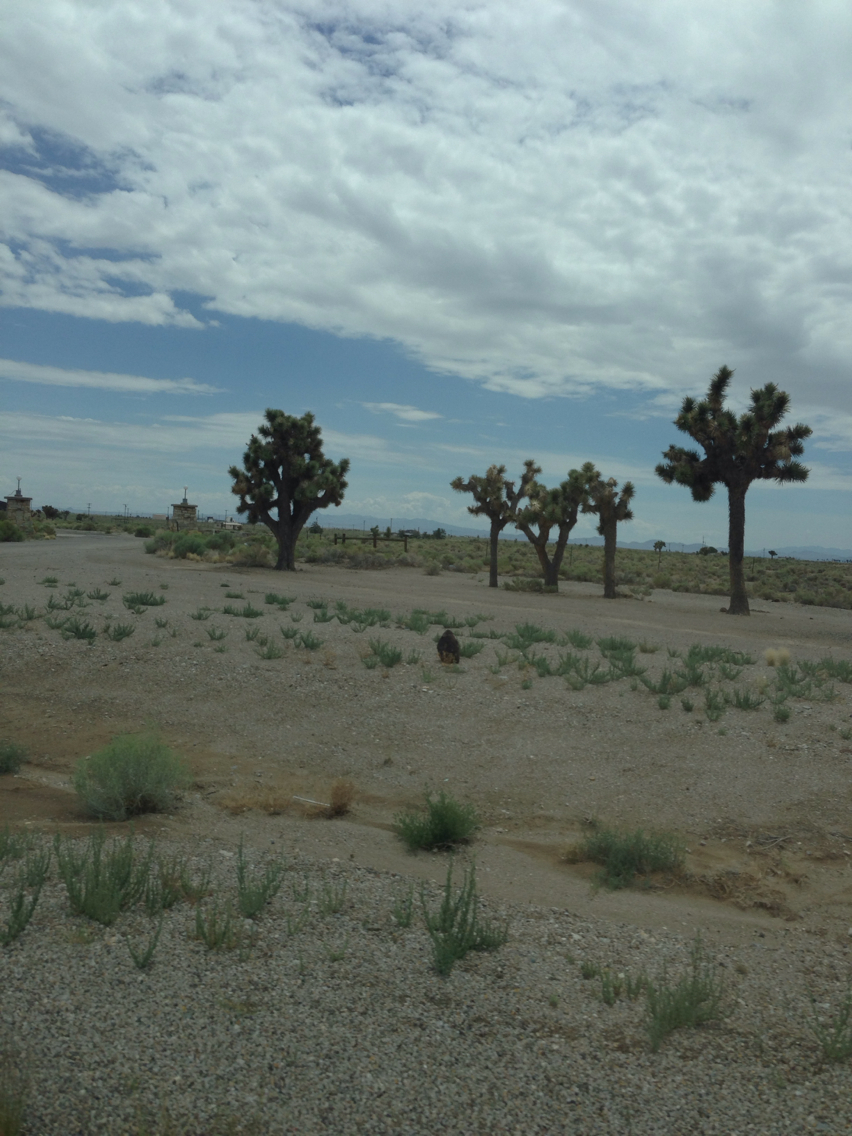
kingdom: Plantae
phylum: Tracheophyta
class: Liliopsida
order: Asparagales
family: Asparagaceae
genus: Yucca
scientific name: Yucca brevifolia
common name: Joshua tree
